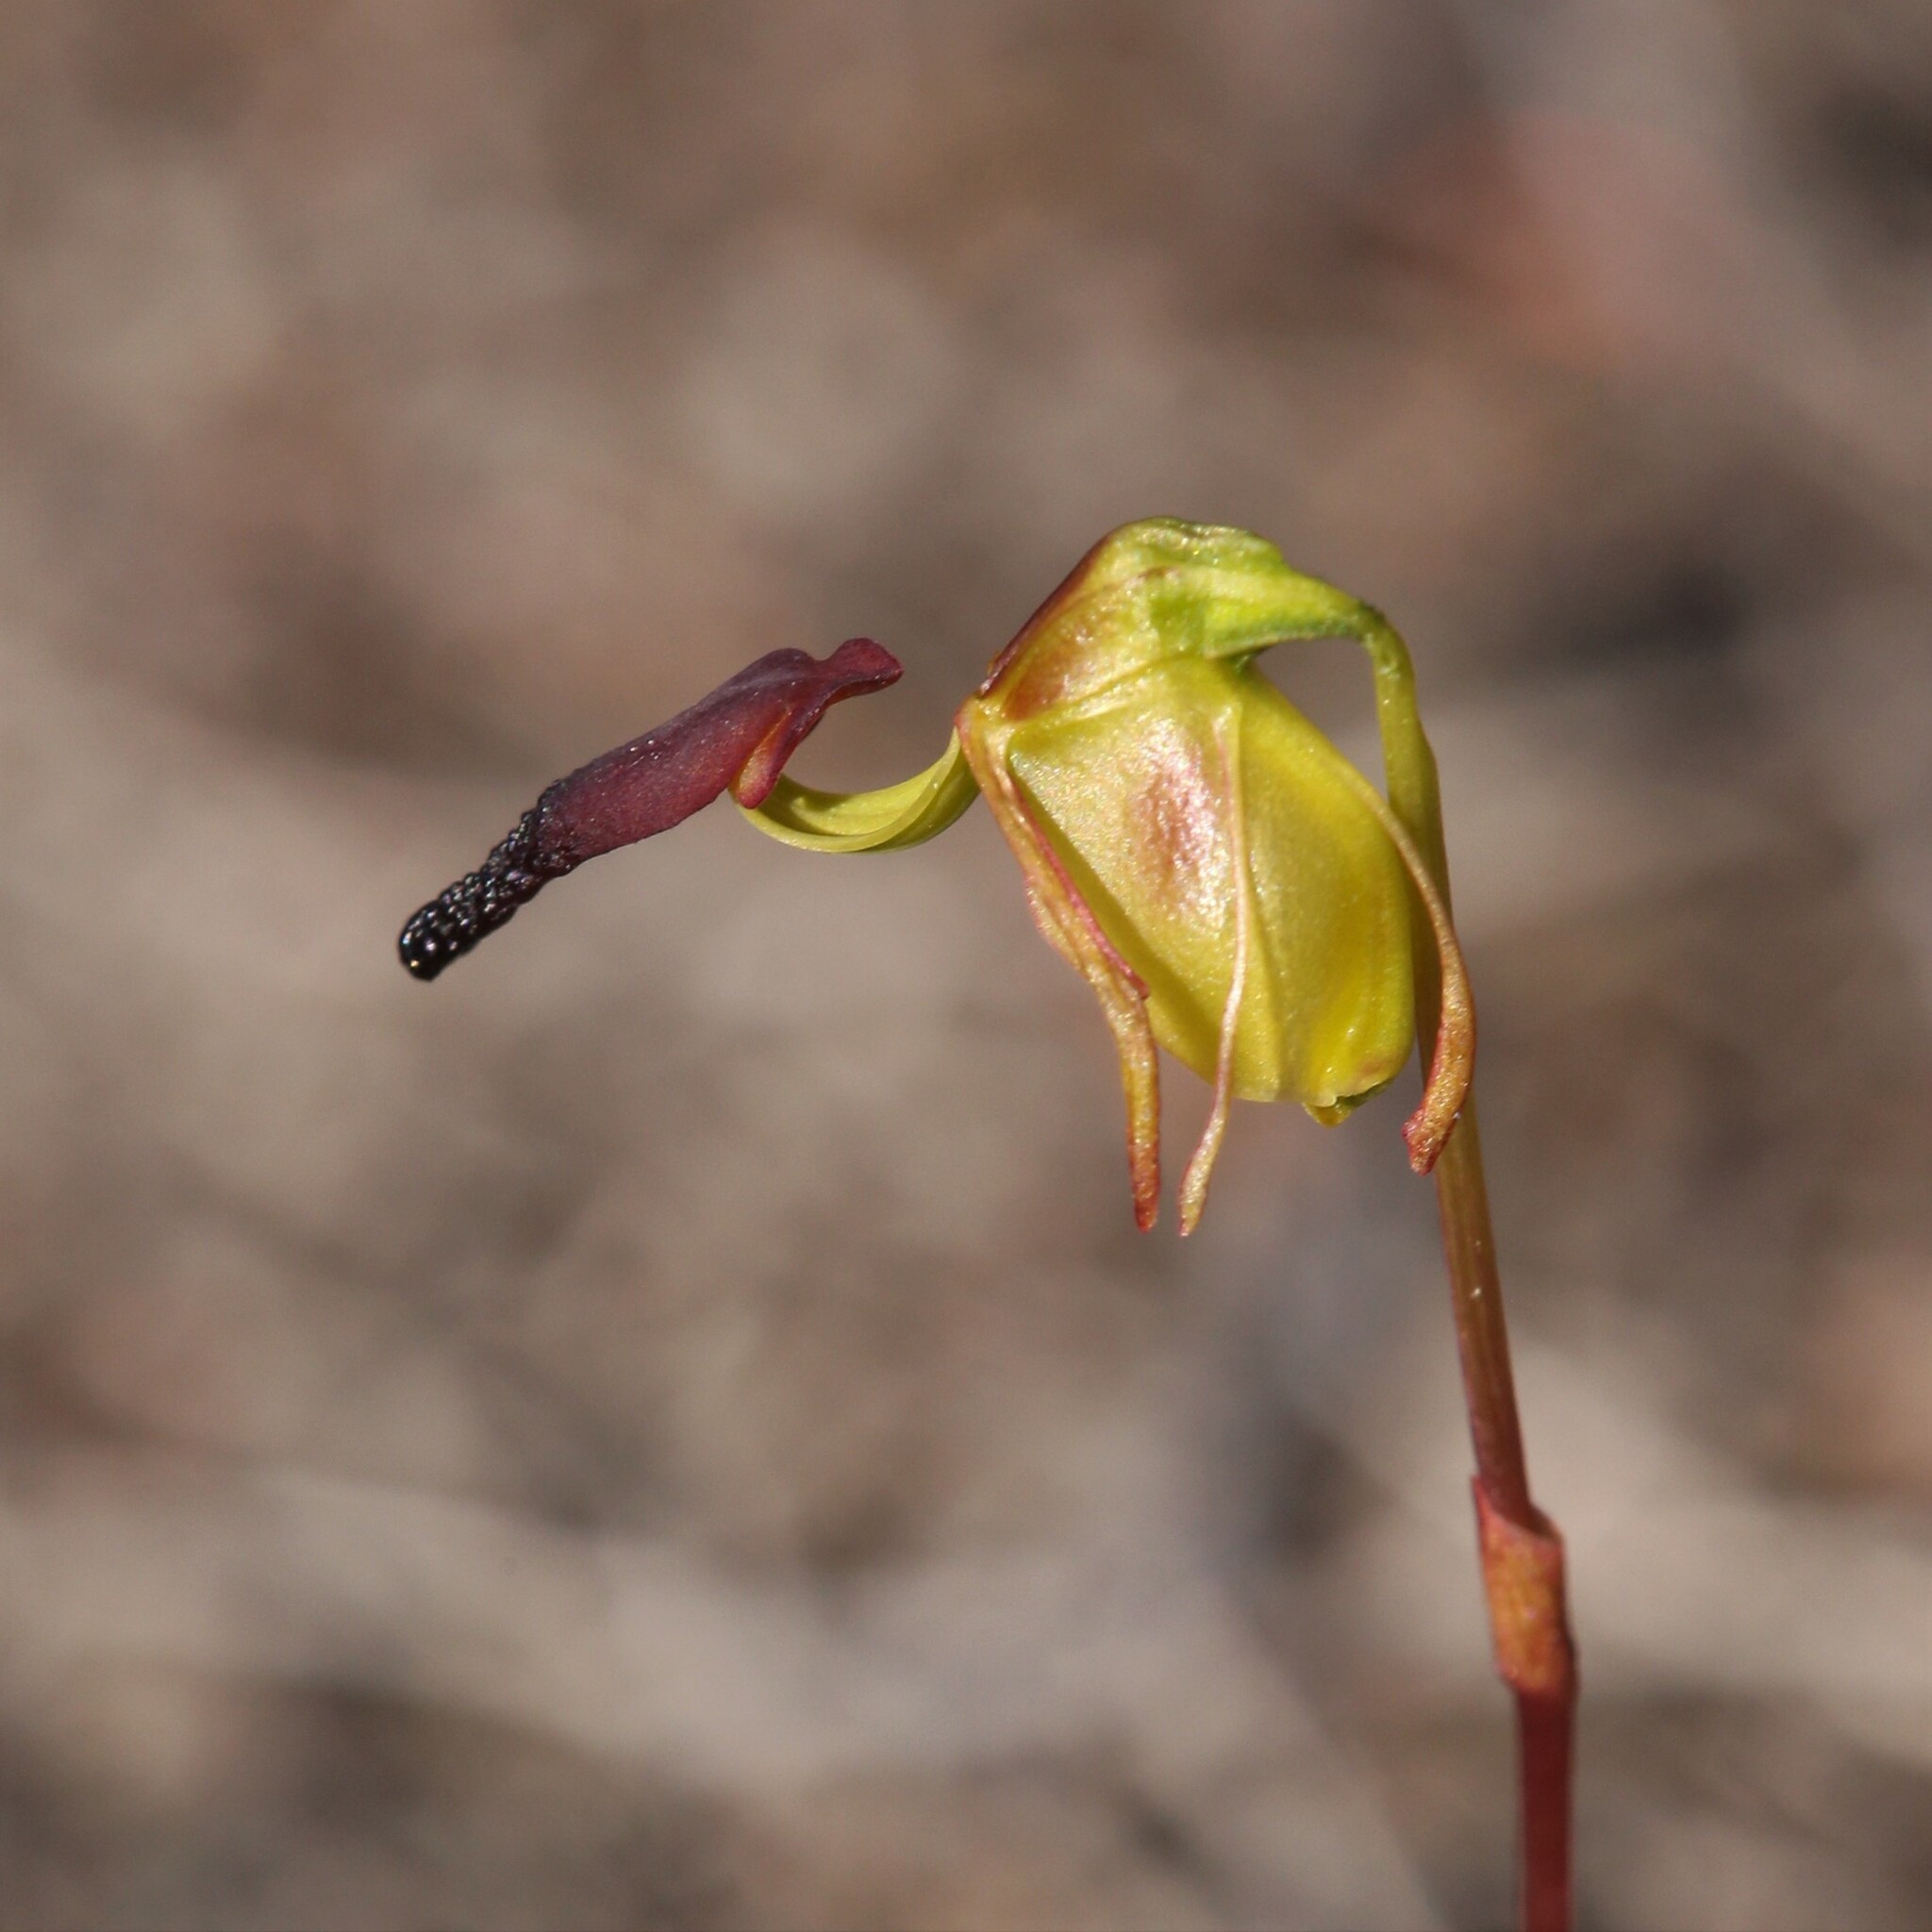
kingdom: Plantae
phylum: Tracheophyta
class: Liliopsida
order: Asparagales
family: Orchidaceae
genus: Caleana
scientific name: Caleana hortiorum
